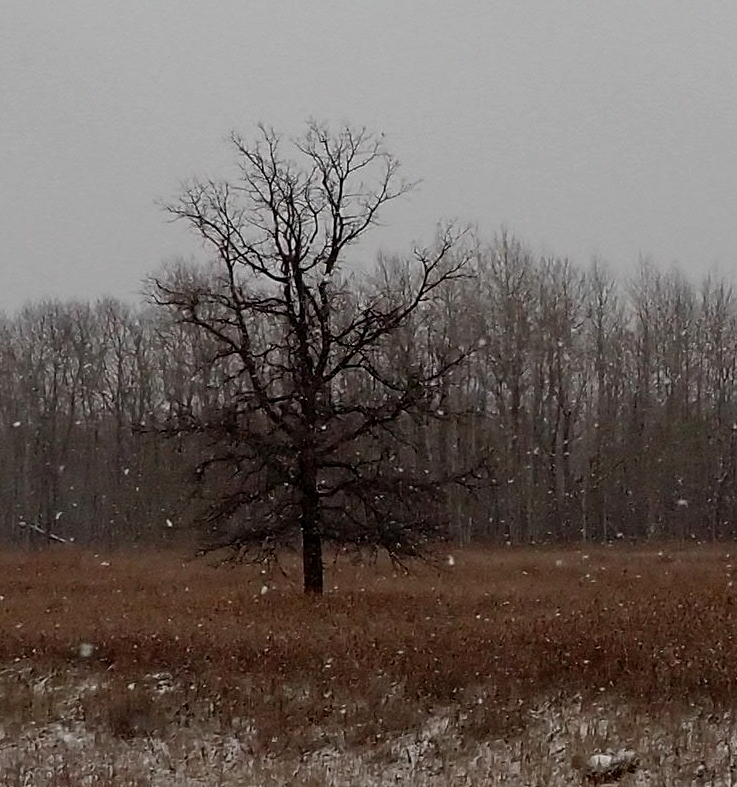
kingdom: Plantae
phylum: Tracheophyta
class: Magnoliopsida
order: Fagales
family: Fagaceae
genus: Quercus
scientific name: Quercus macrocarpa
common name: Bur oak
